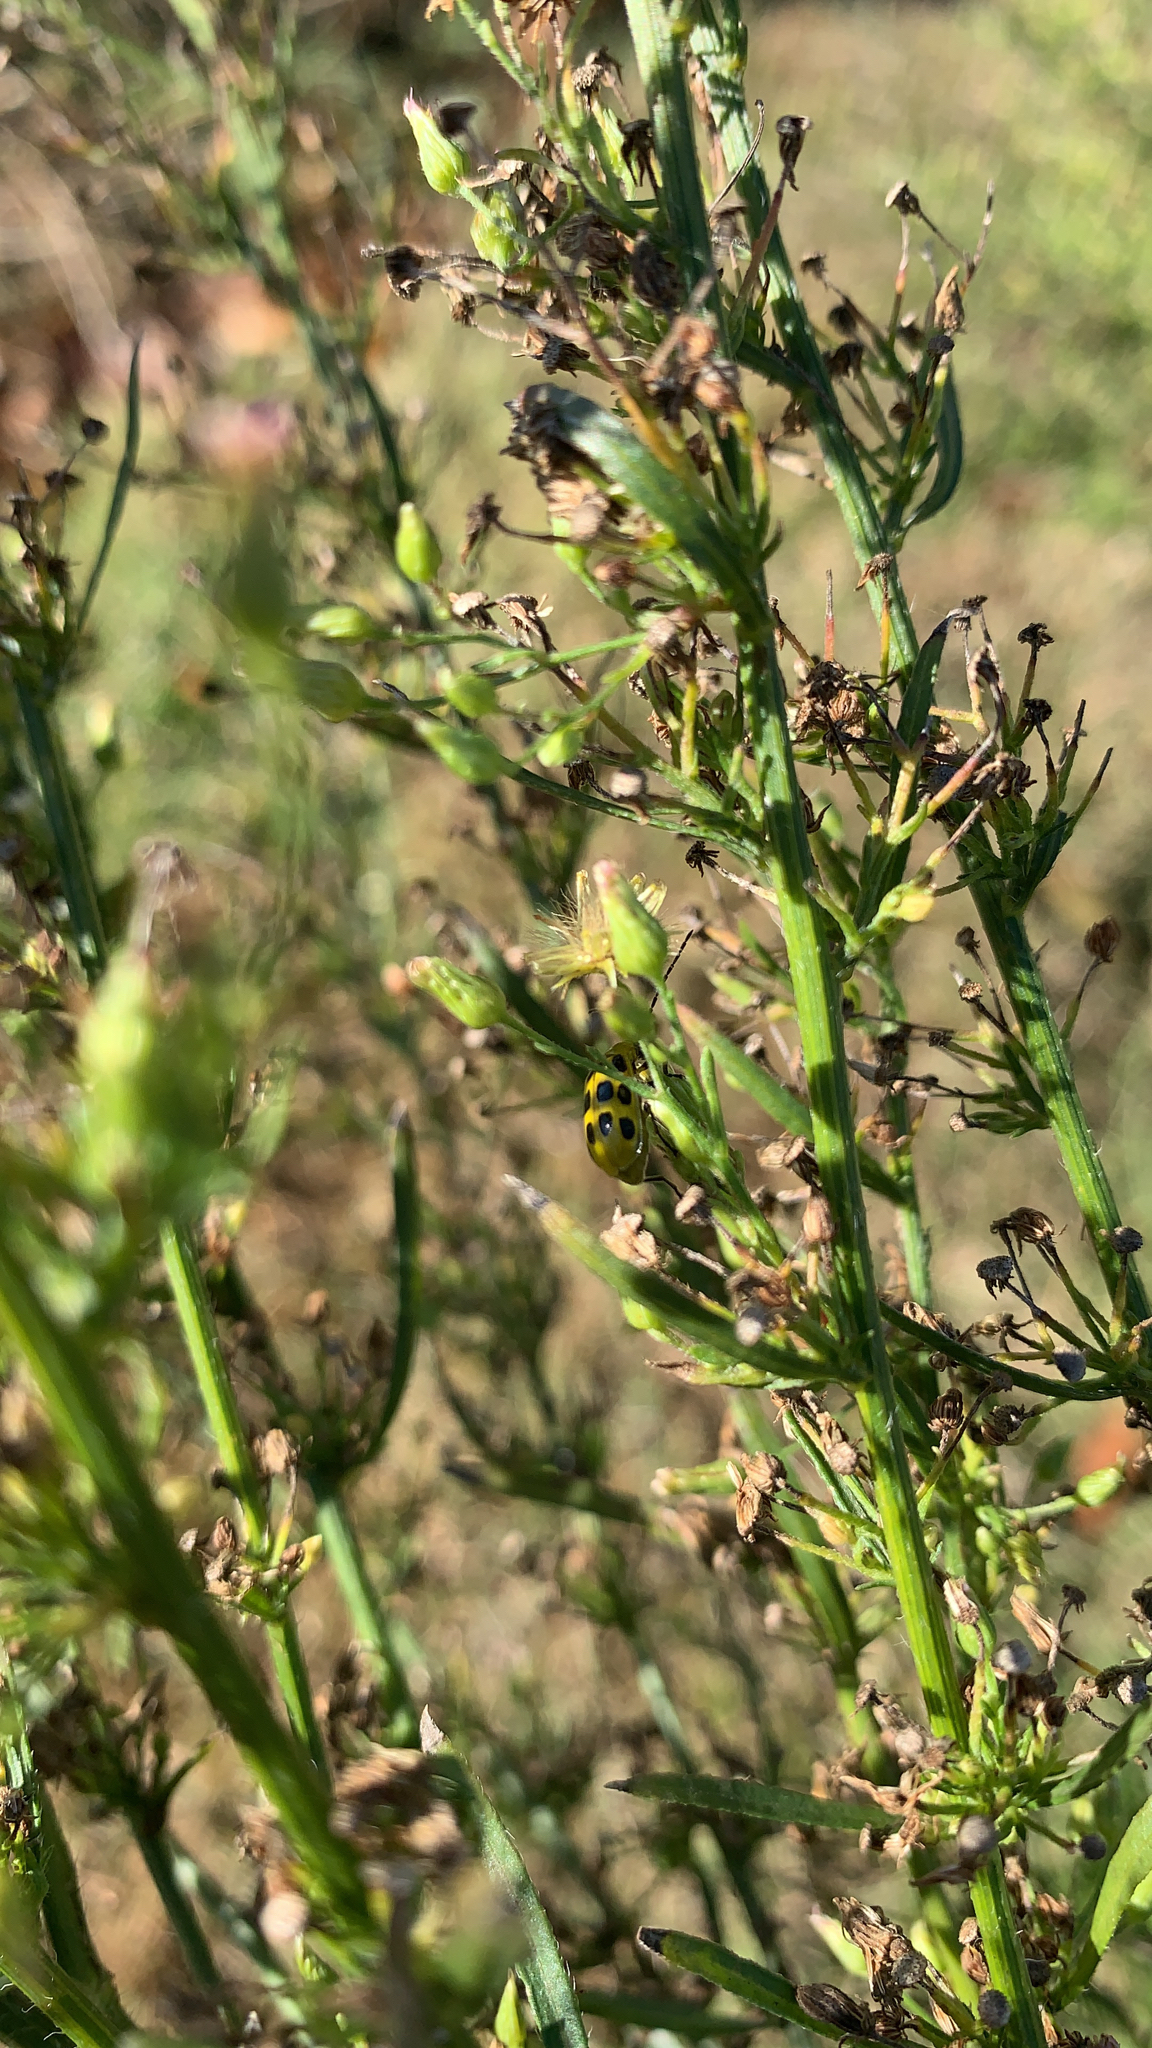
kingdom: Animalia
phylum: Arthropoda
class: Insecta
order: Coleoptera
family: Chrysomelidae
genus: Diabrotica
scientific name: Diabrotica undecimpunctata
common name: Spotted cucumber beetle
